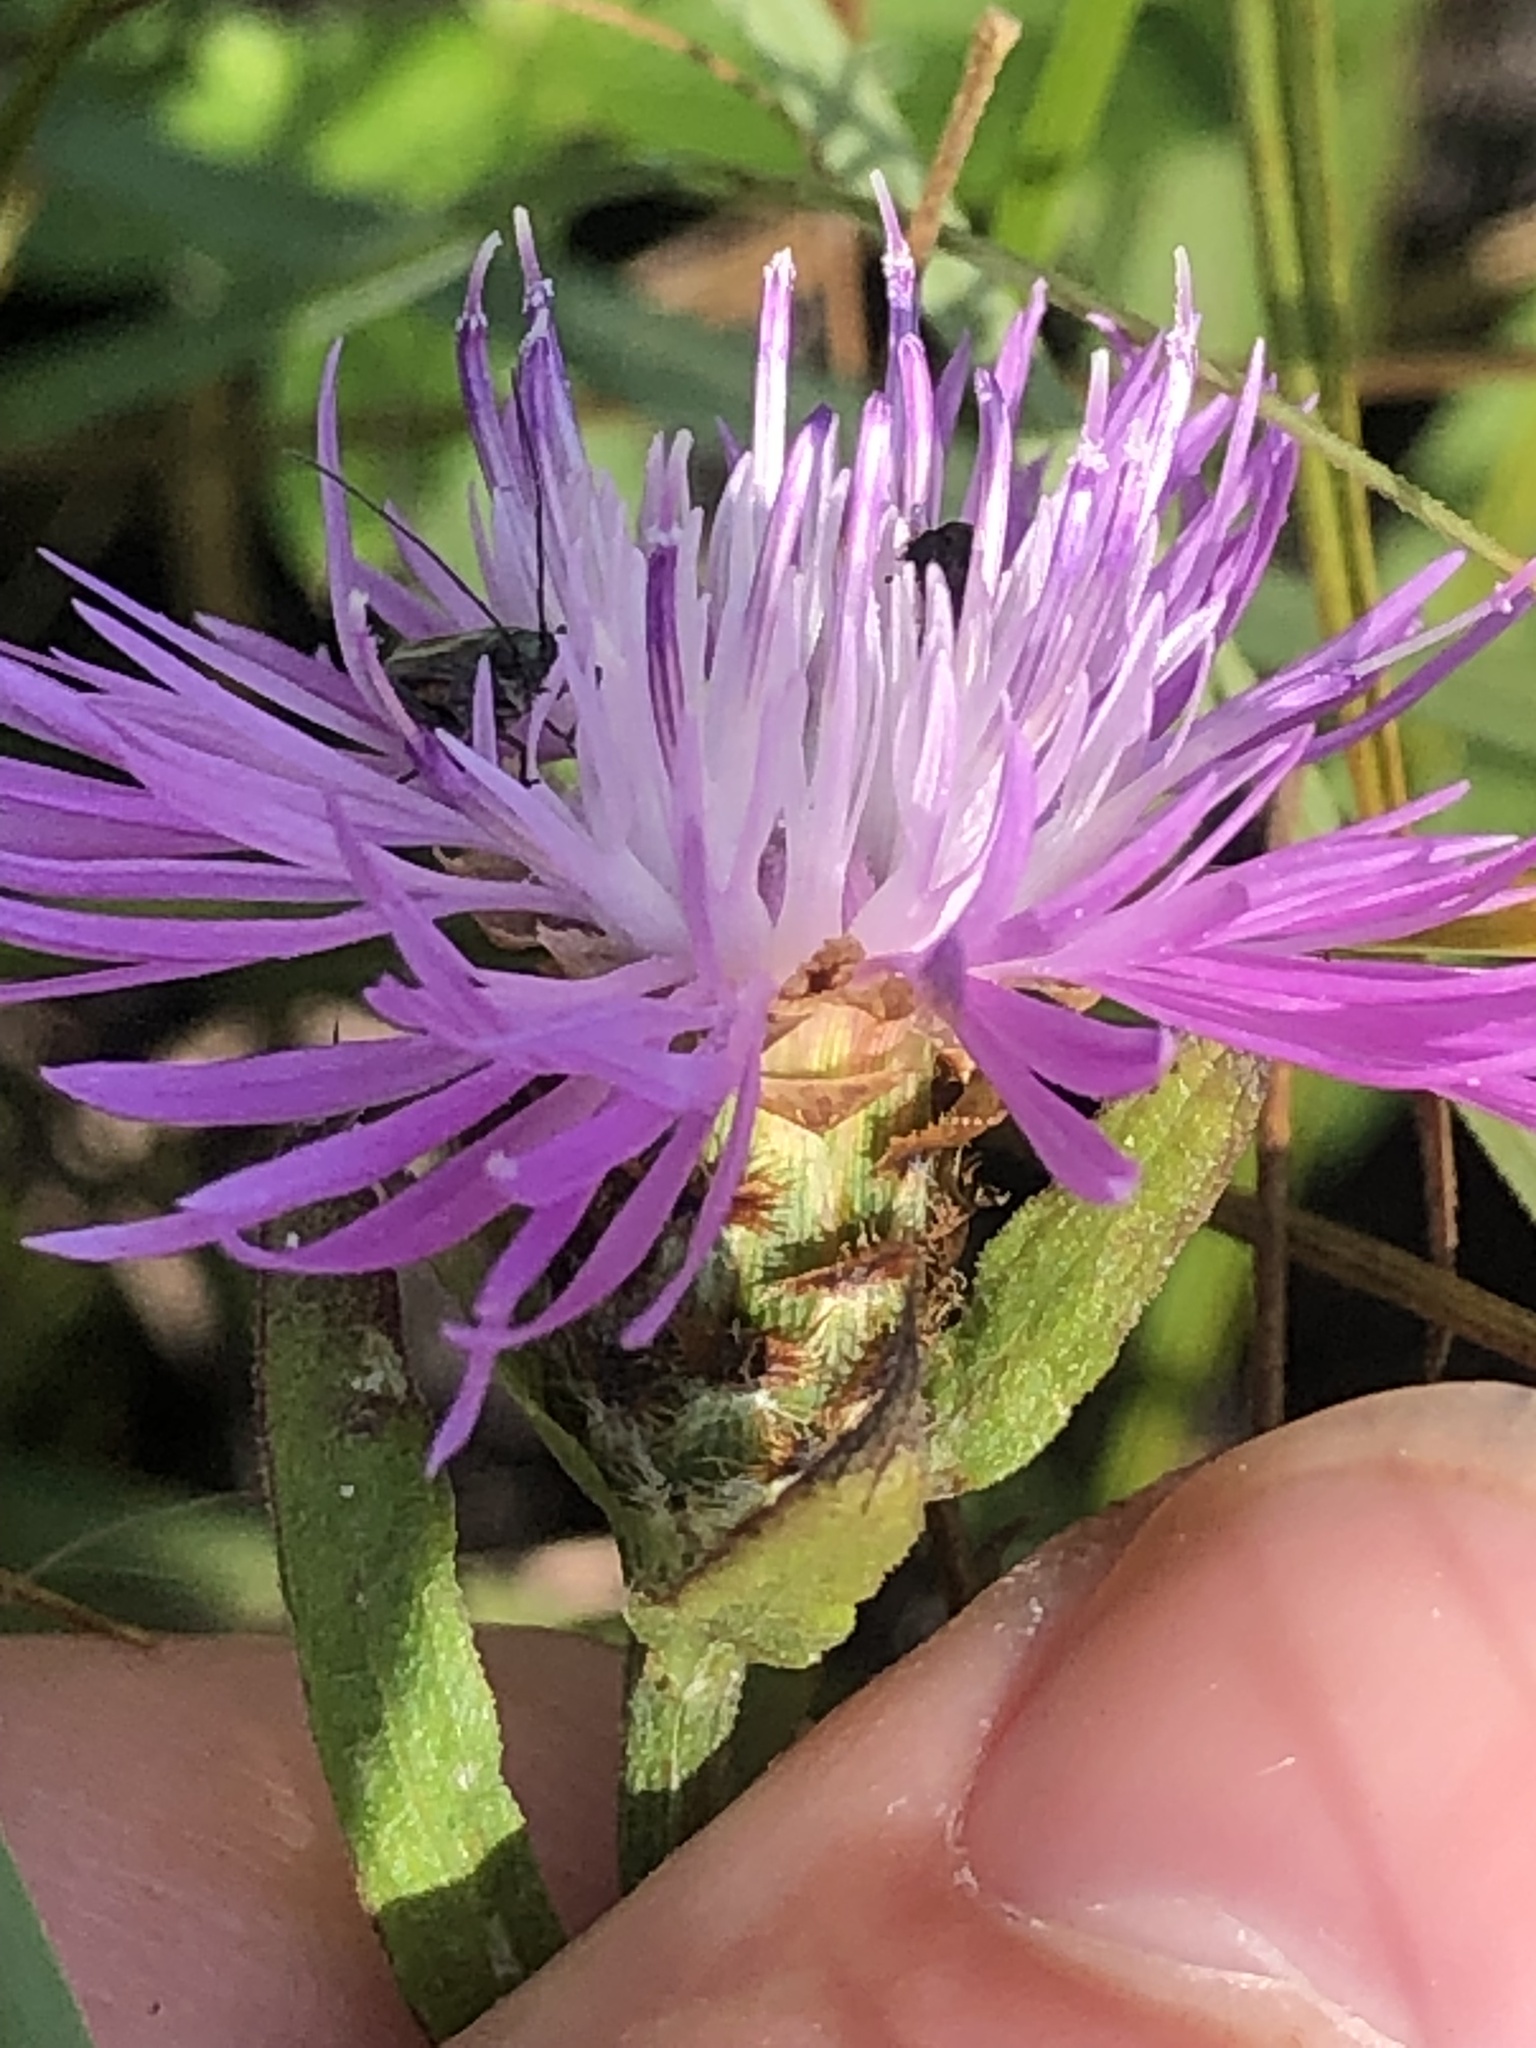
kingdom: Plantae
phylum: Tracheophyta
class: Magnoliopsida
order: Asterales
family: Asteraceae
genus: Centaurea
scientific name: Centaurea nigrescens
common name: Tyrol knapweed
